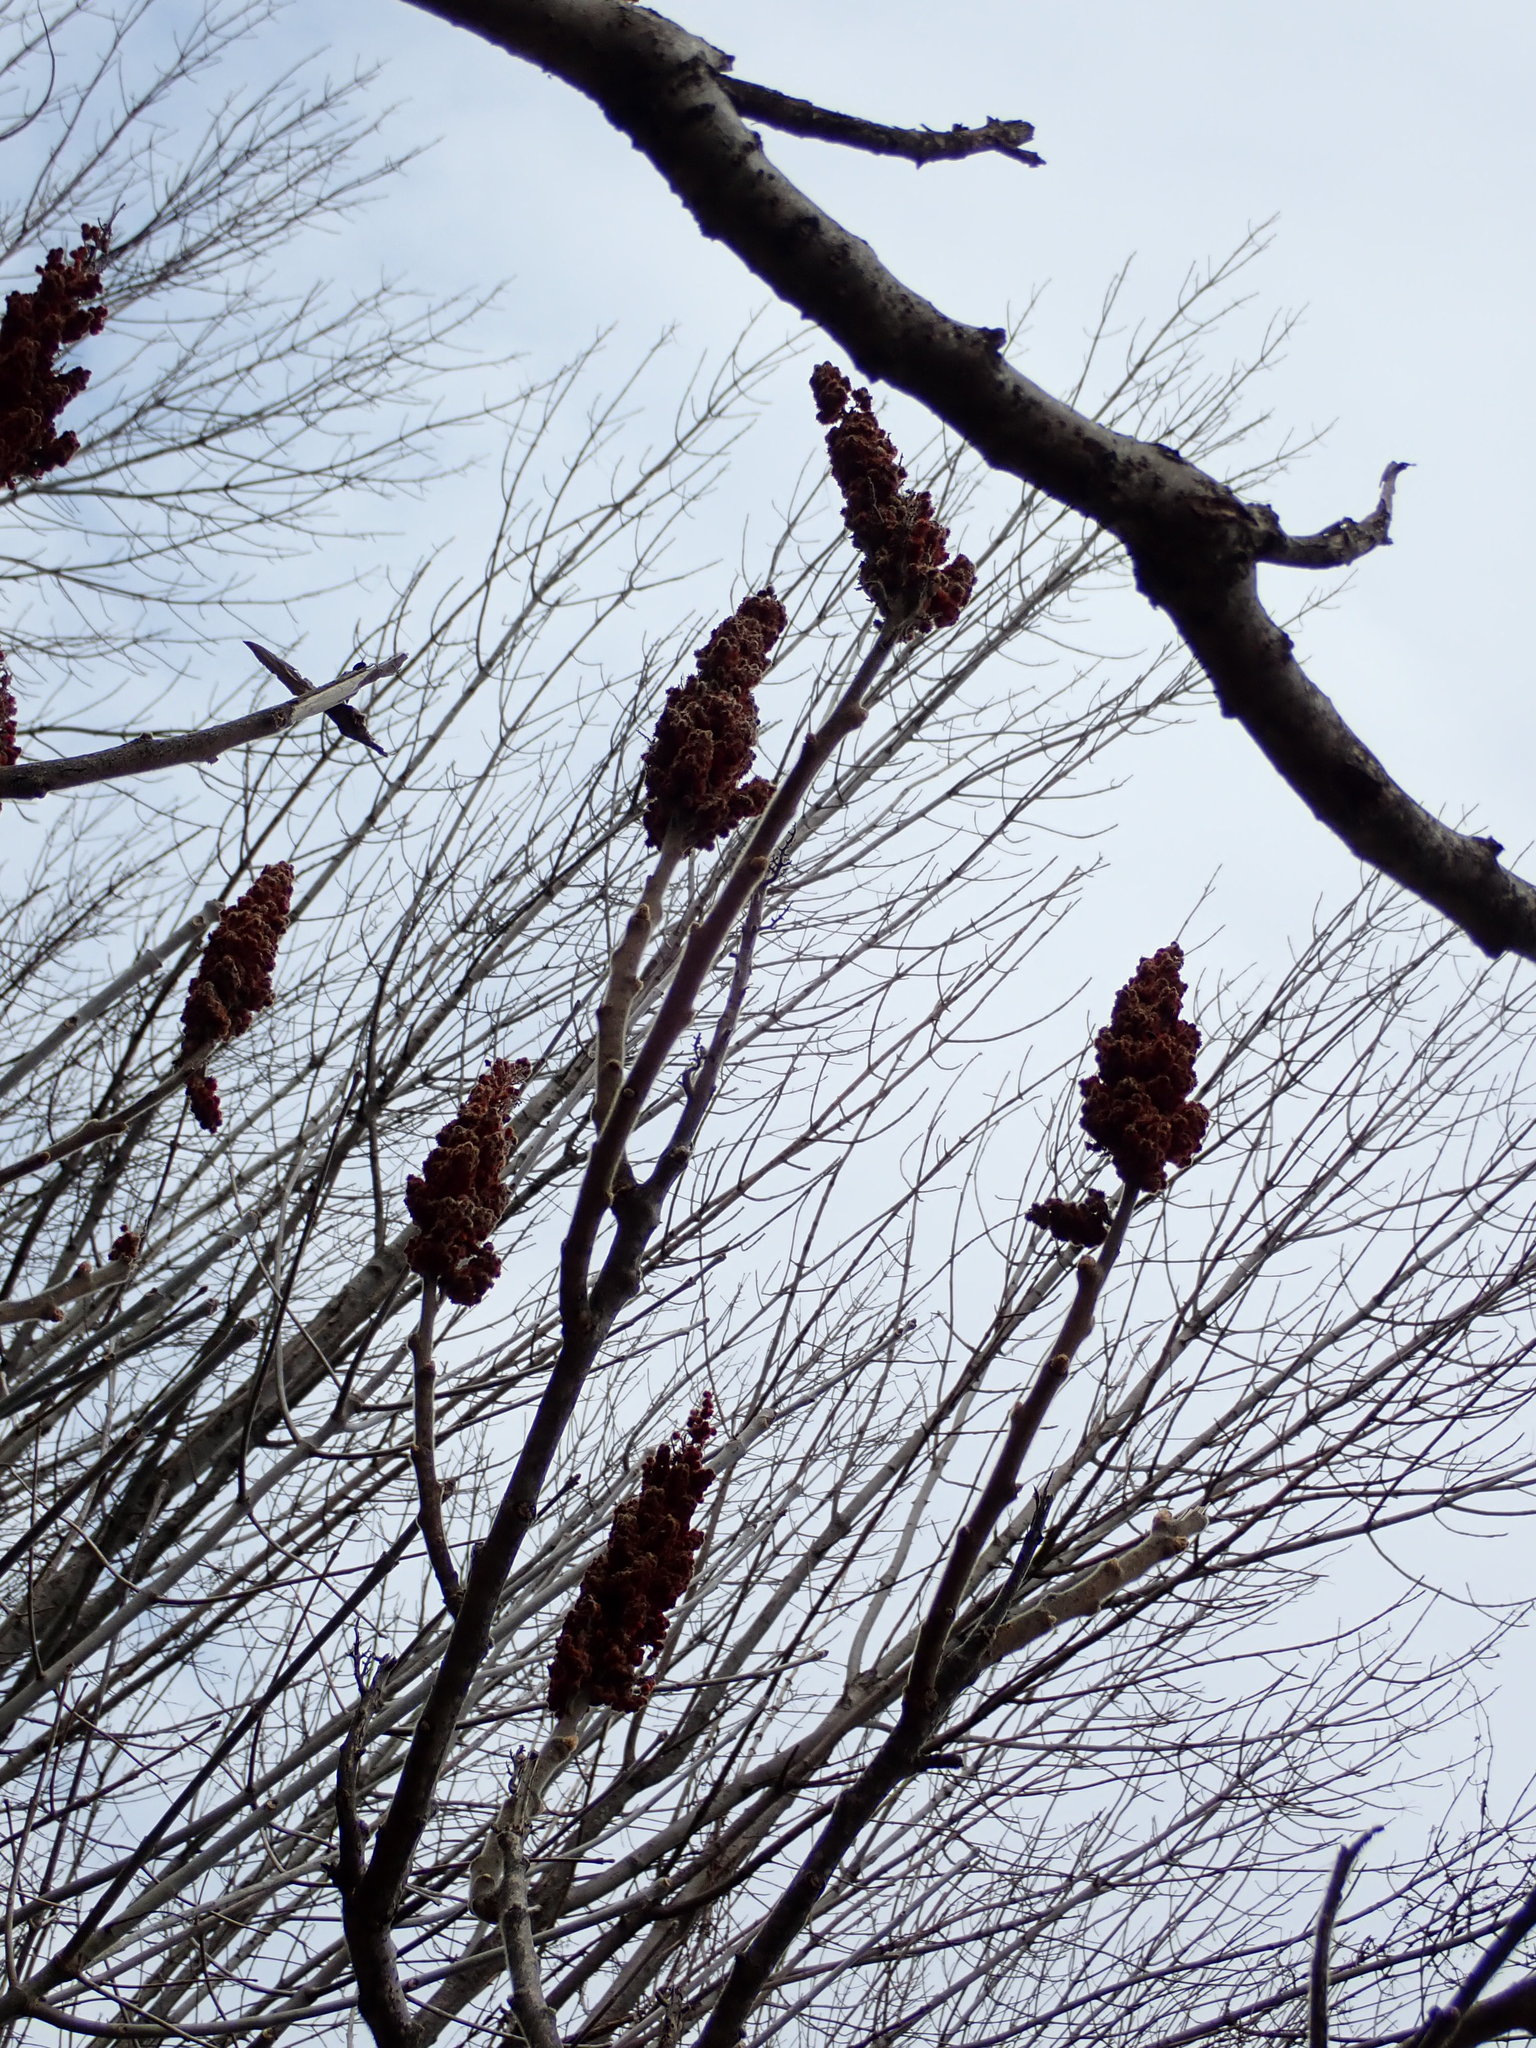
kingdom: Plantae
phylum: Tracheophyta
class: Magnoliopsida
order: Sapindales
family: Anacardiaceae
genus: Rhus
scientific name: Rhus typhina
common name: Staghorn sumac
